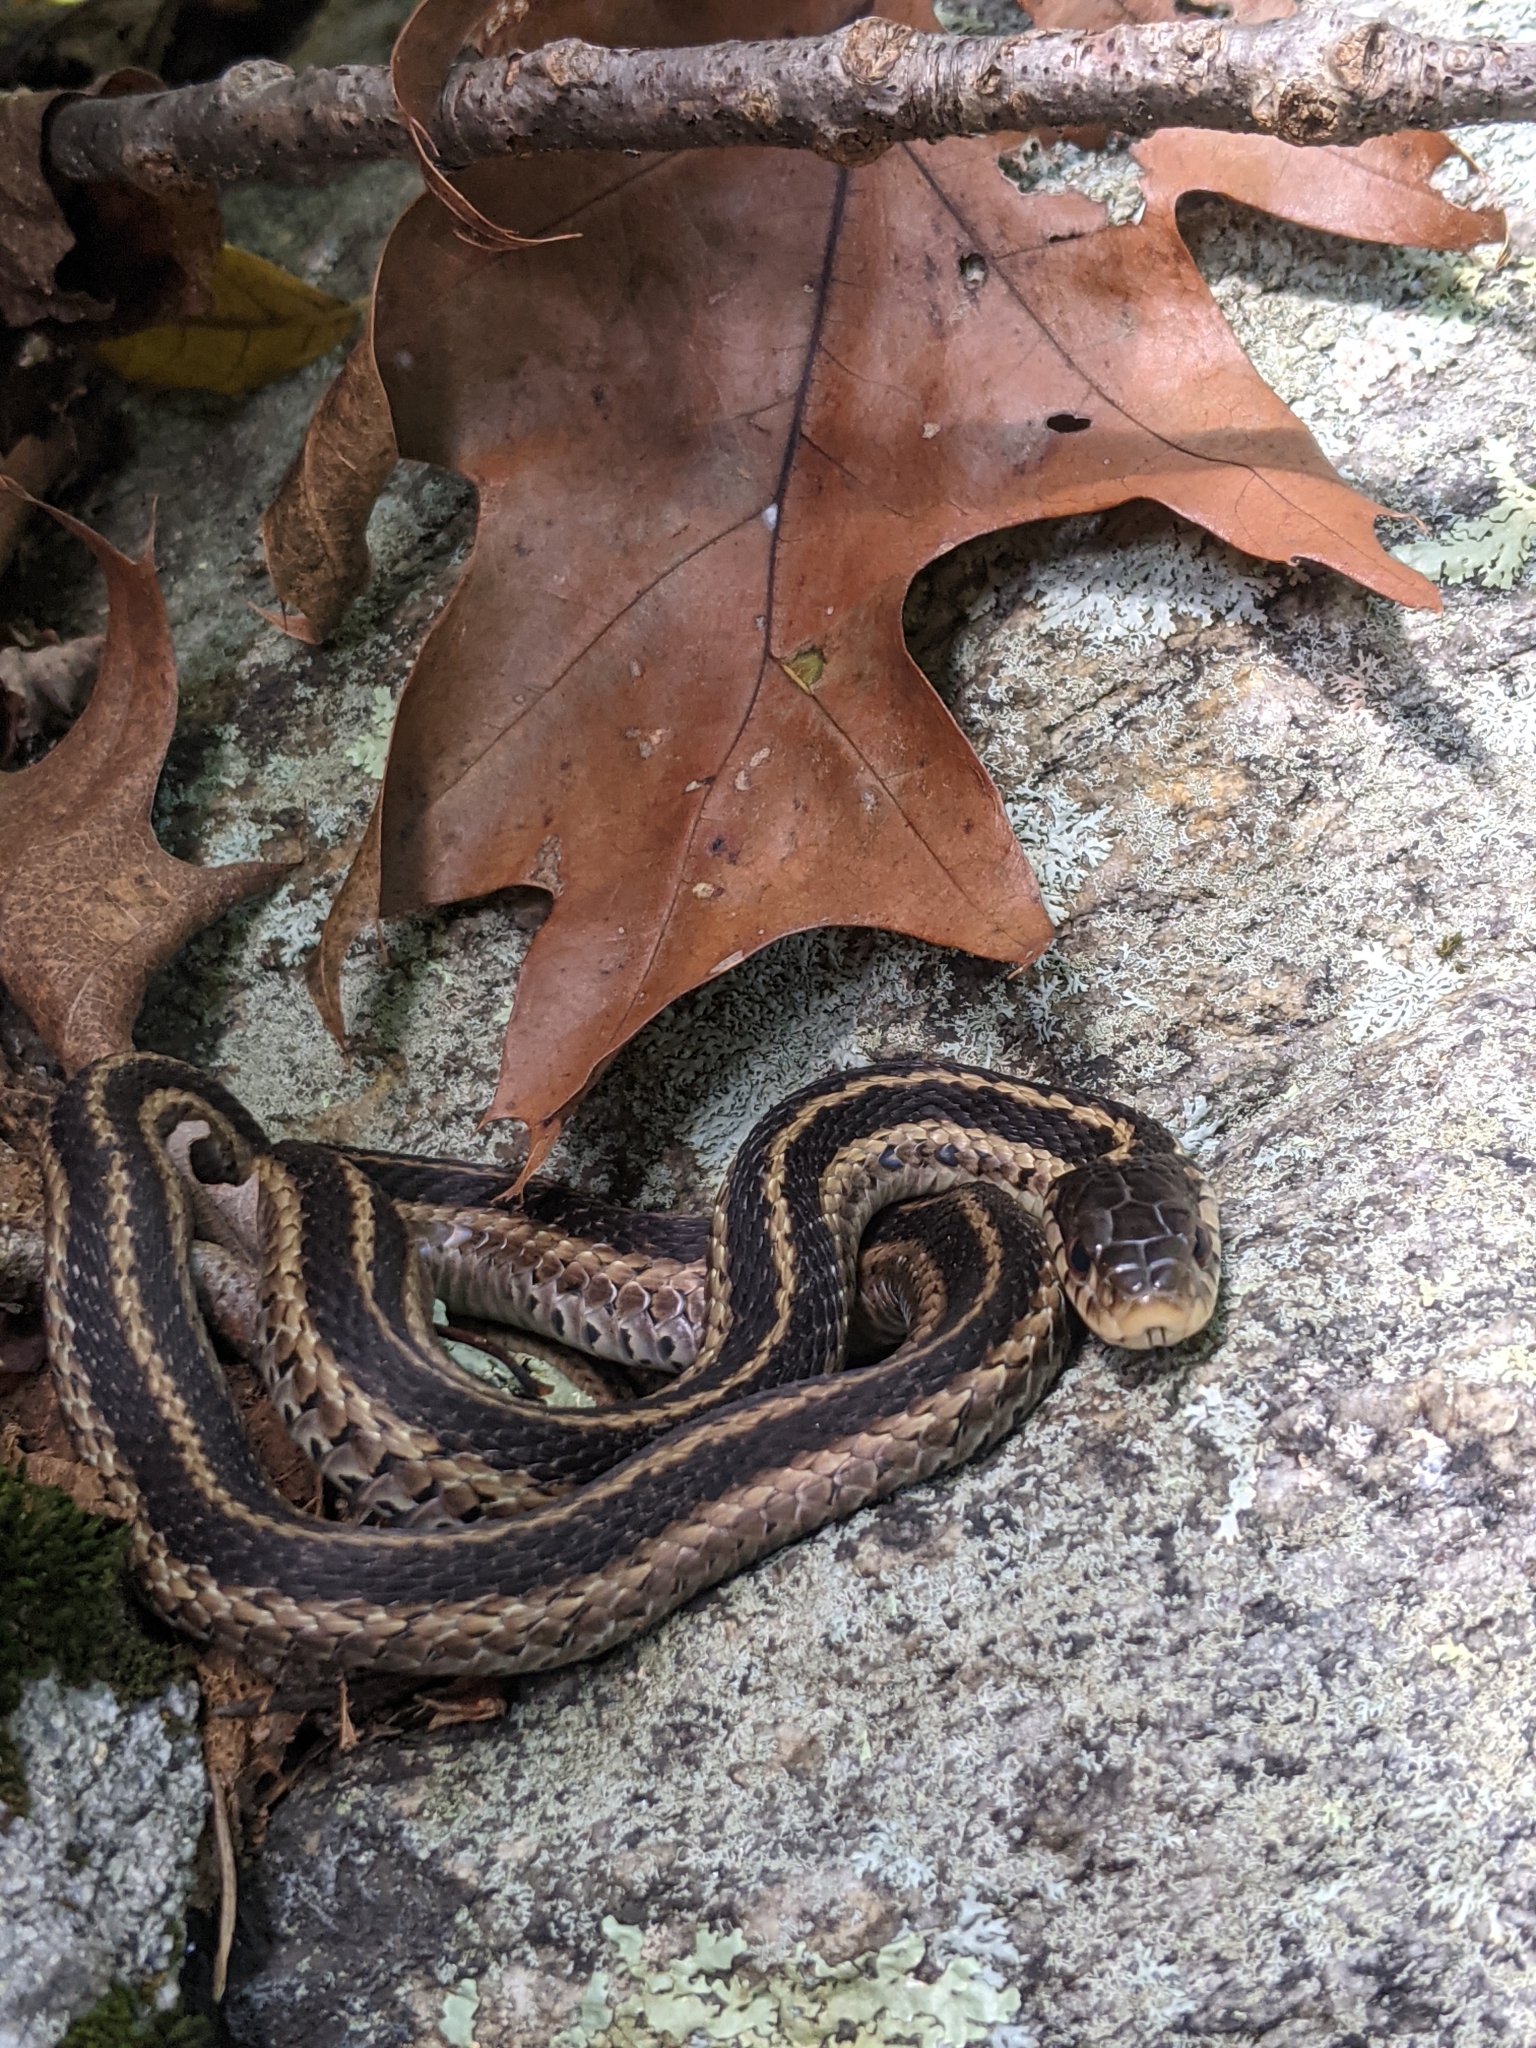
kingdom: Animalia
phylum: Chordata
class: Squamata
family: Colubridae
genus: Thamnophis
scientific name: Thamnophis sirtalis
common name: Common garter snake
